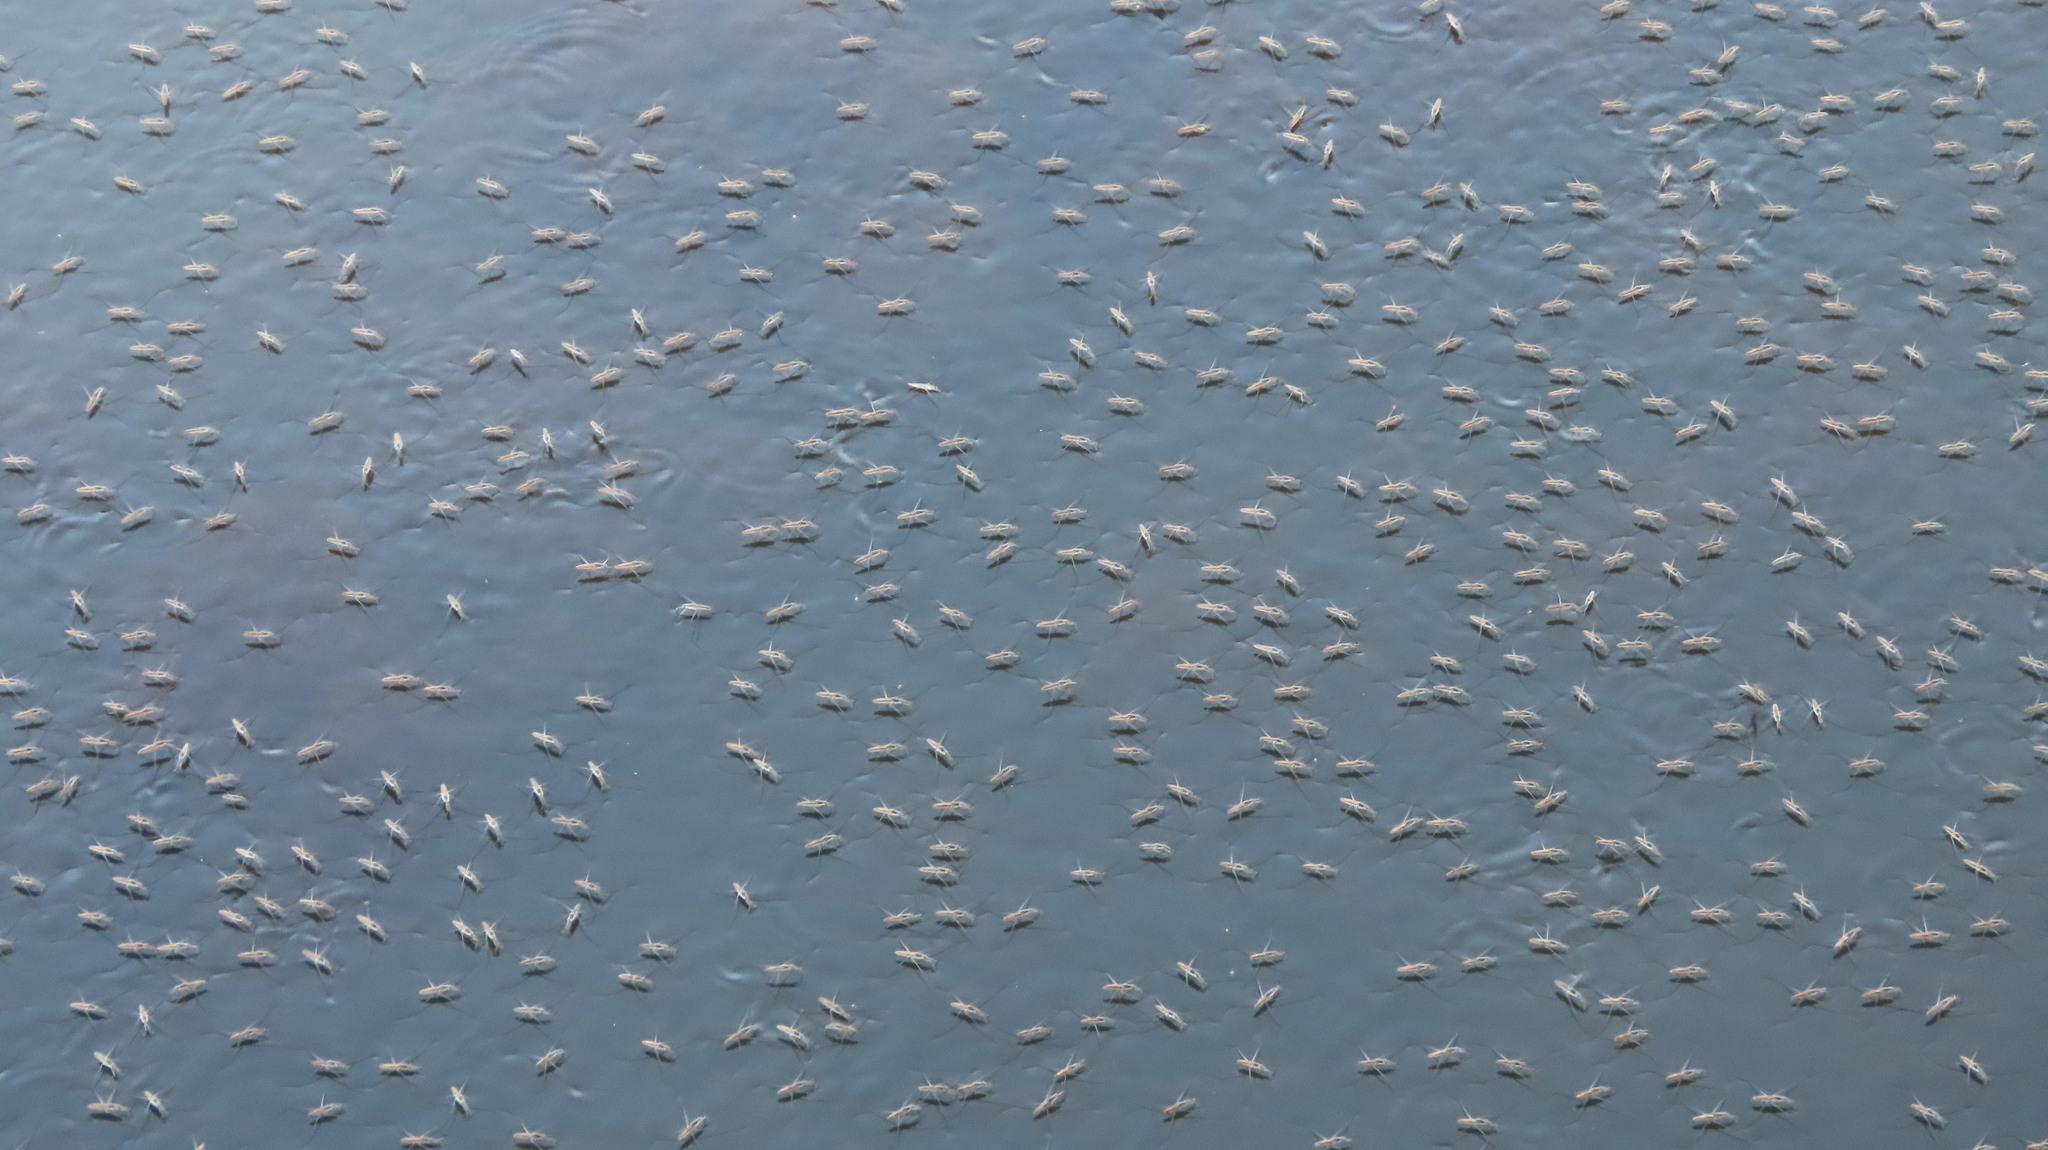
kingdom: Animalia
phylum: Arthropoda
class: Insecta
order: Hemiptera
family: Gerridae
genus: Aquarius
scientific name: Aquarius adelaidis
